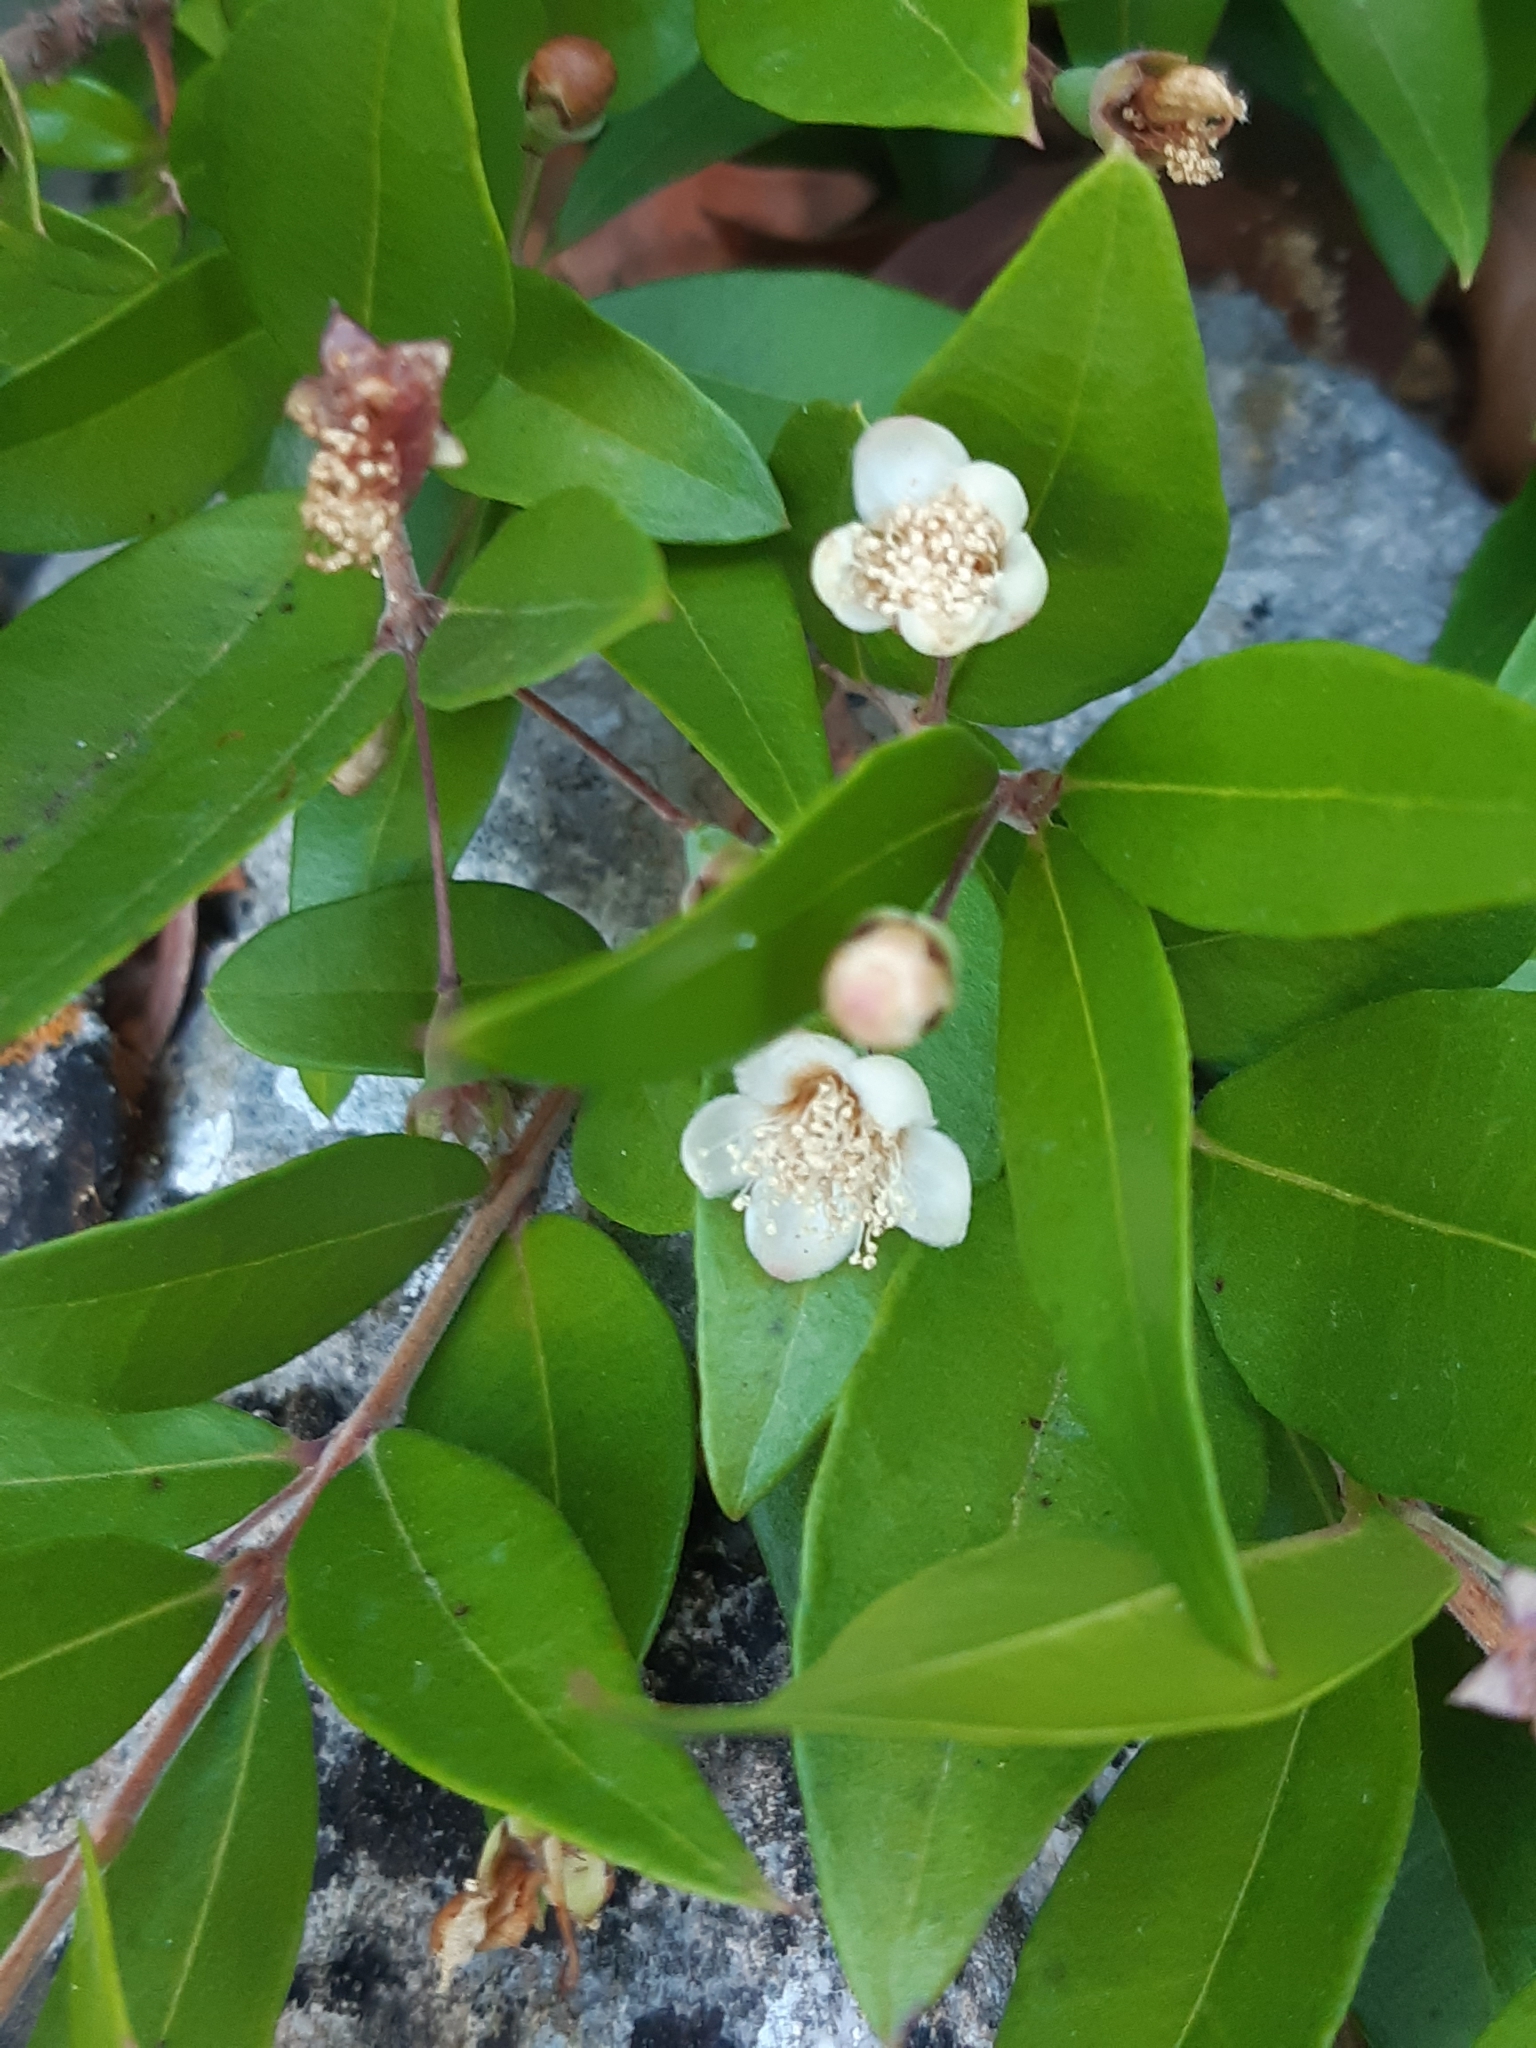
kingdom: Plantae
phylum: Tracheophyta
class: Magnoliopsida
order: Myrtales
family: Myrtaceae
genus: Myrtus
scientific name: Myrtus communis
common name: Myrtle
